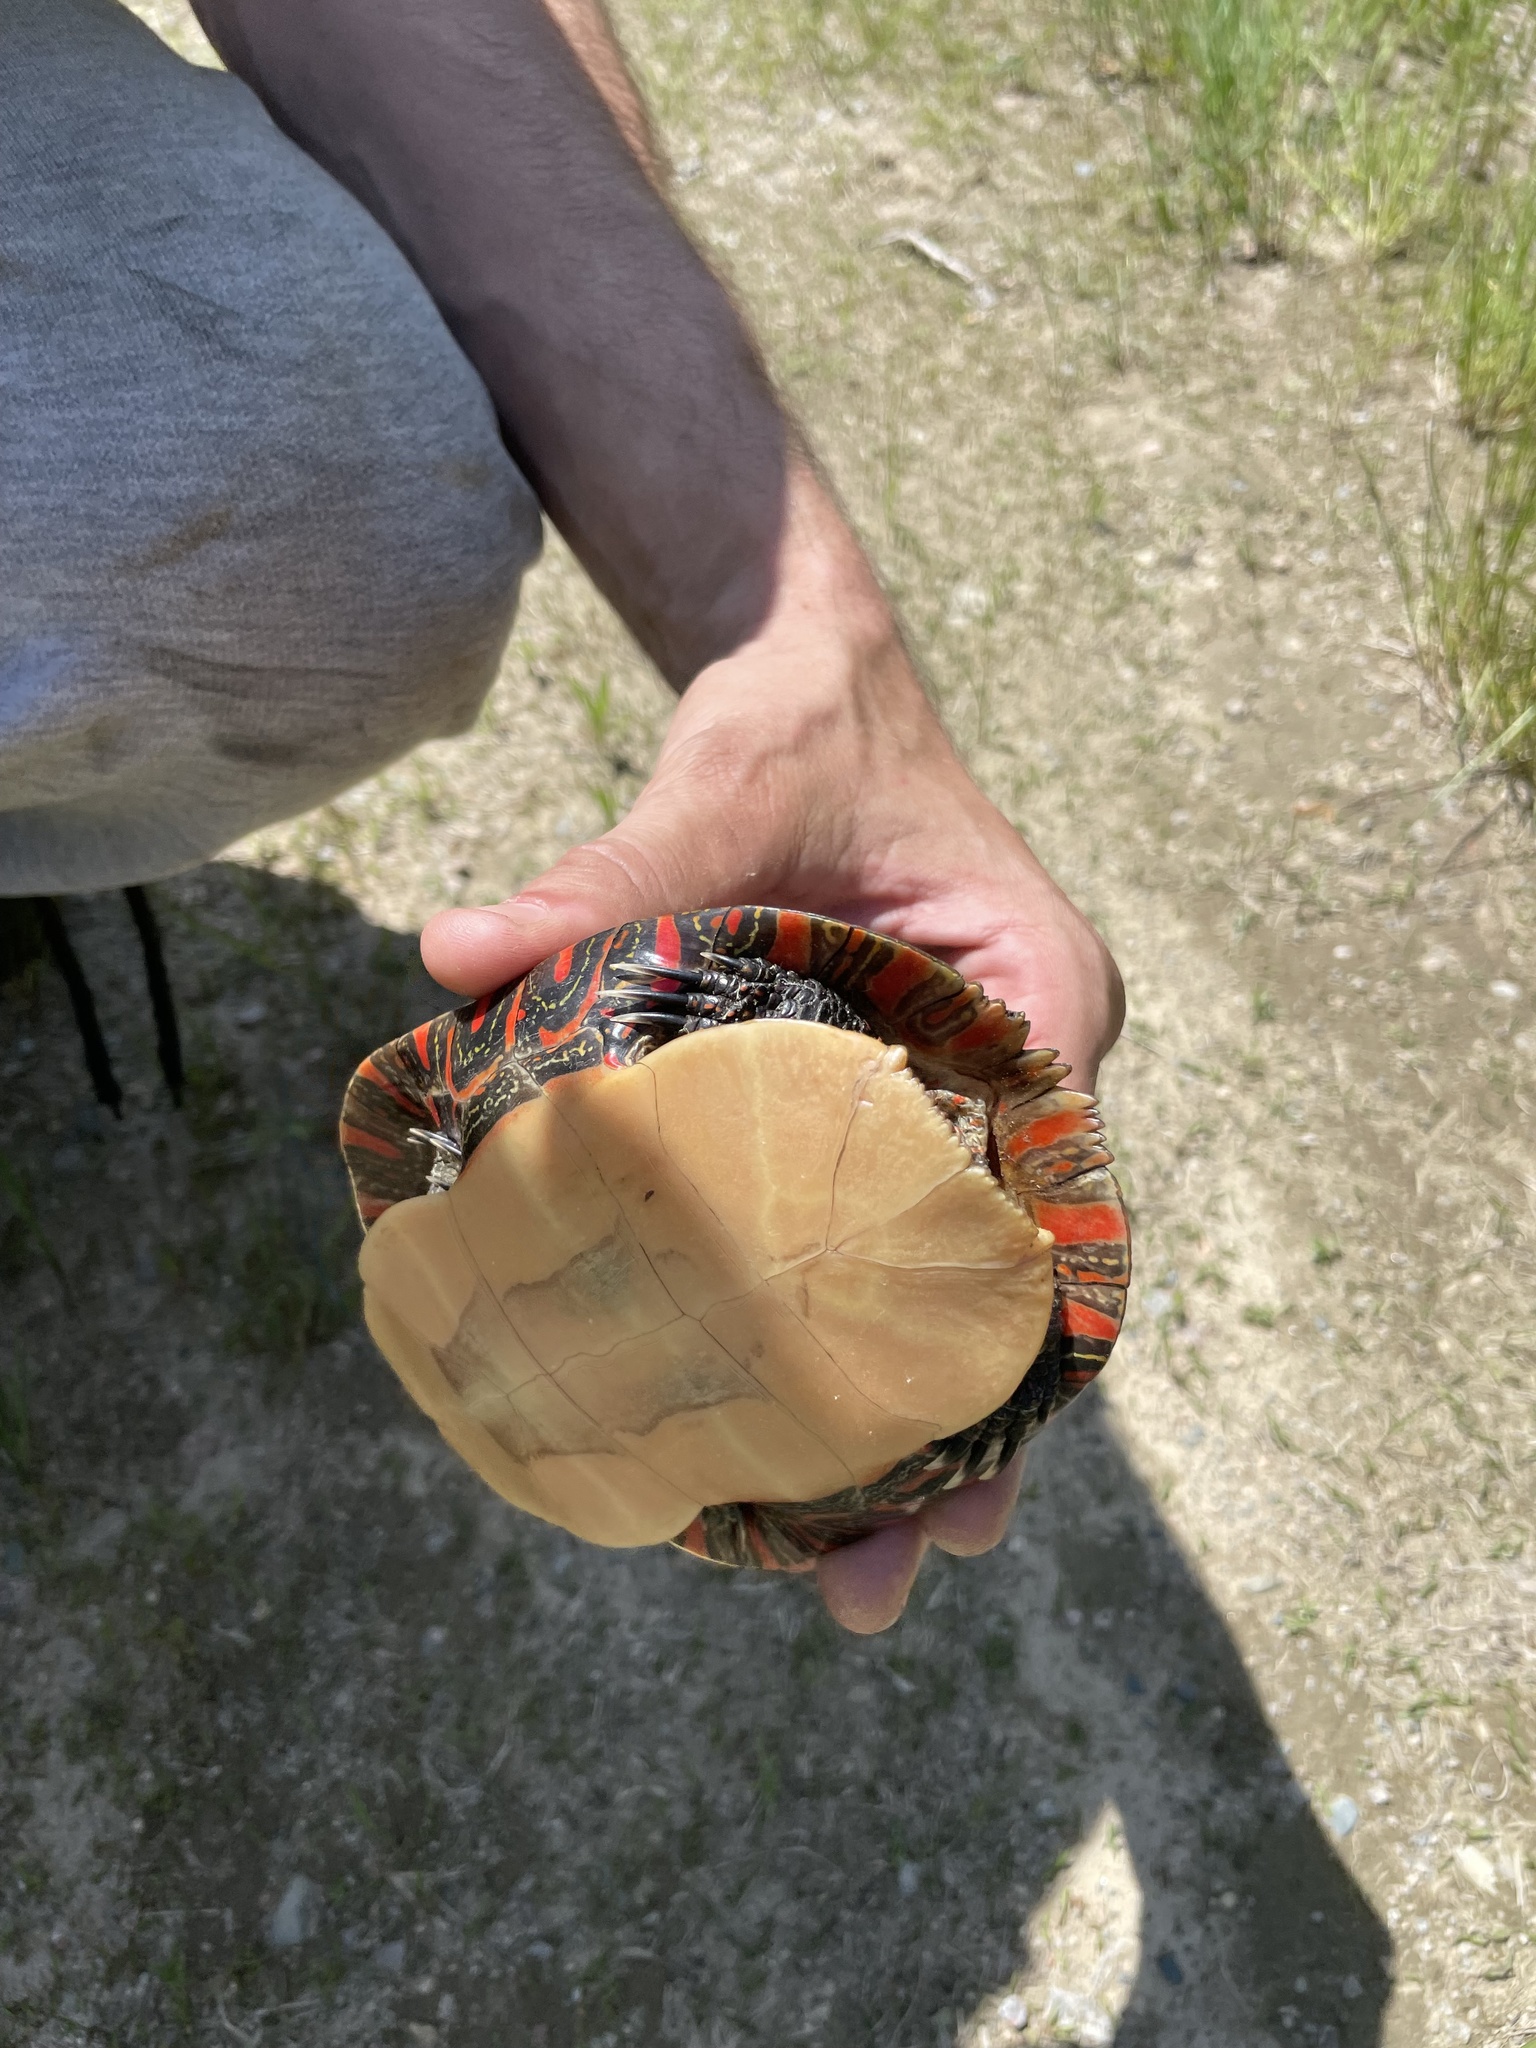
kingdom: Animalia
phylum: Chordata
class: Testudines
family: Emydidae
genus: Chrysemys
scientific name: Chrysemys picta
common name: Painted turtle
